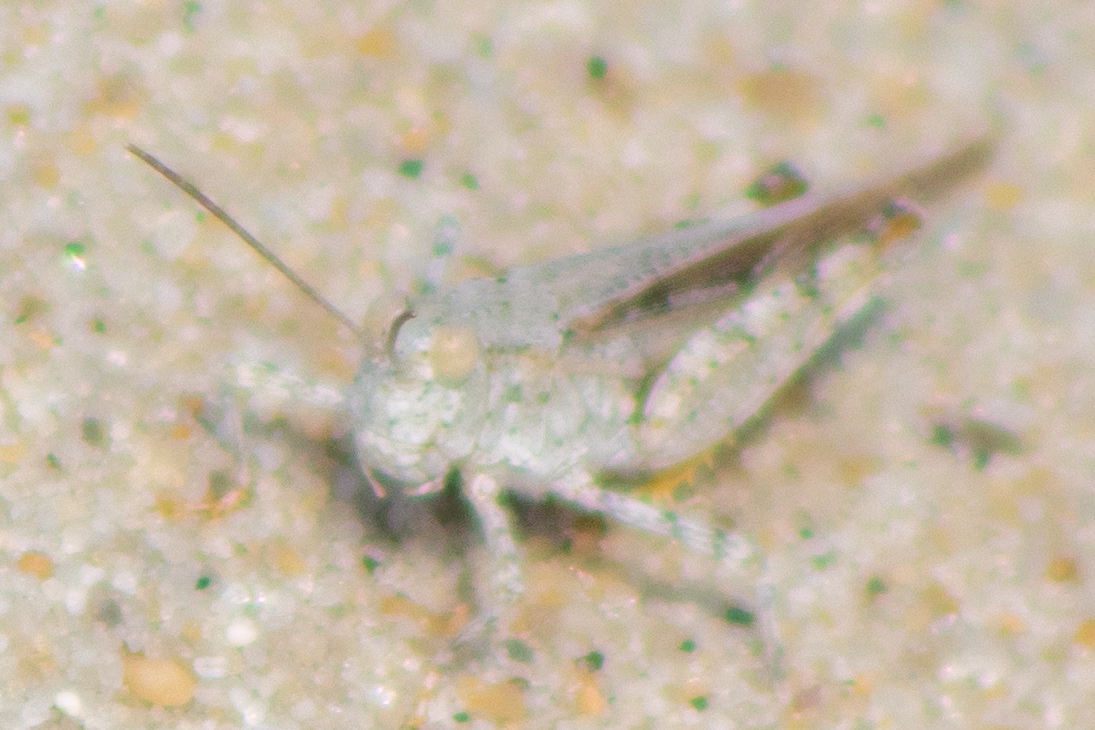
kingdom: Animalia
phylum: Arthropoda
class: Insecta
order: Orthoptera
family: Acrididae
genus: Trimerotropis
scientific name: Trimerotropis maritima
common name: Seaside locust
